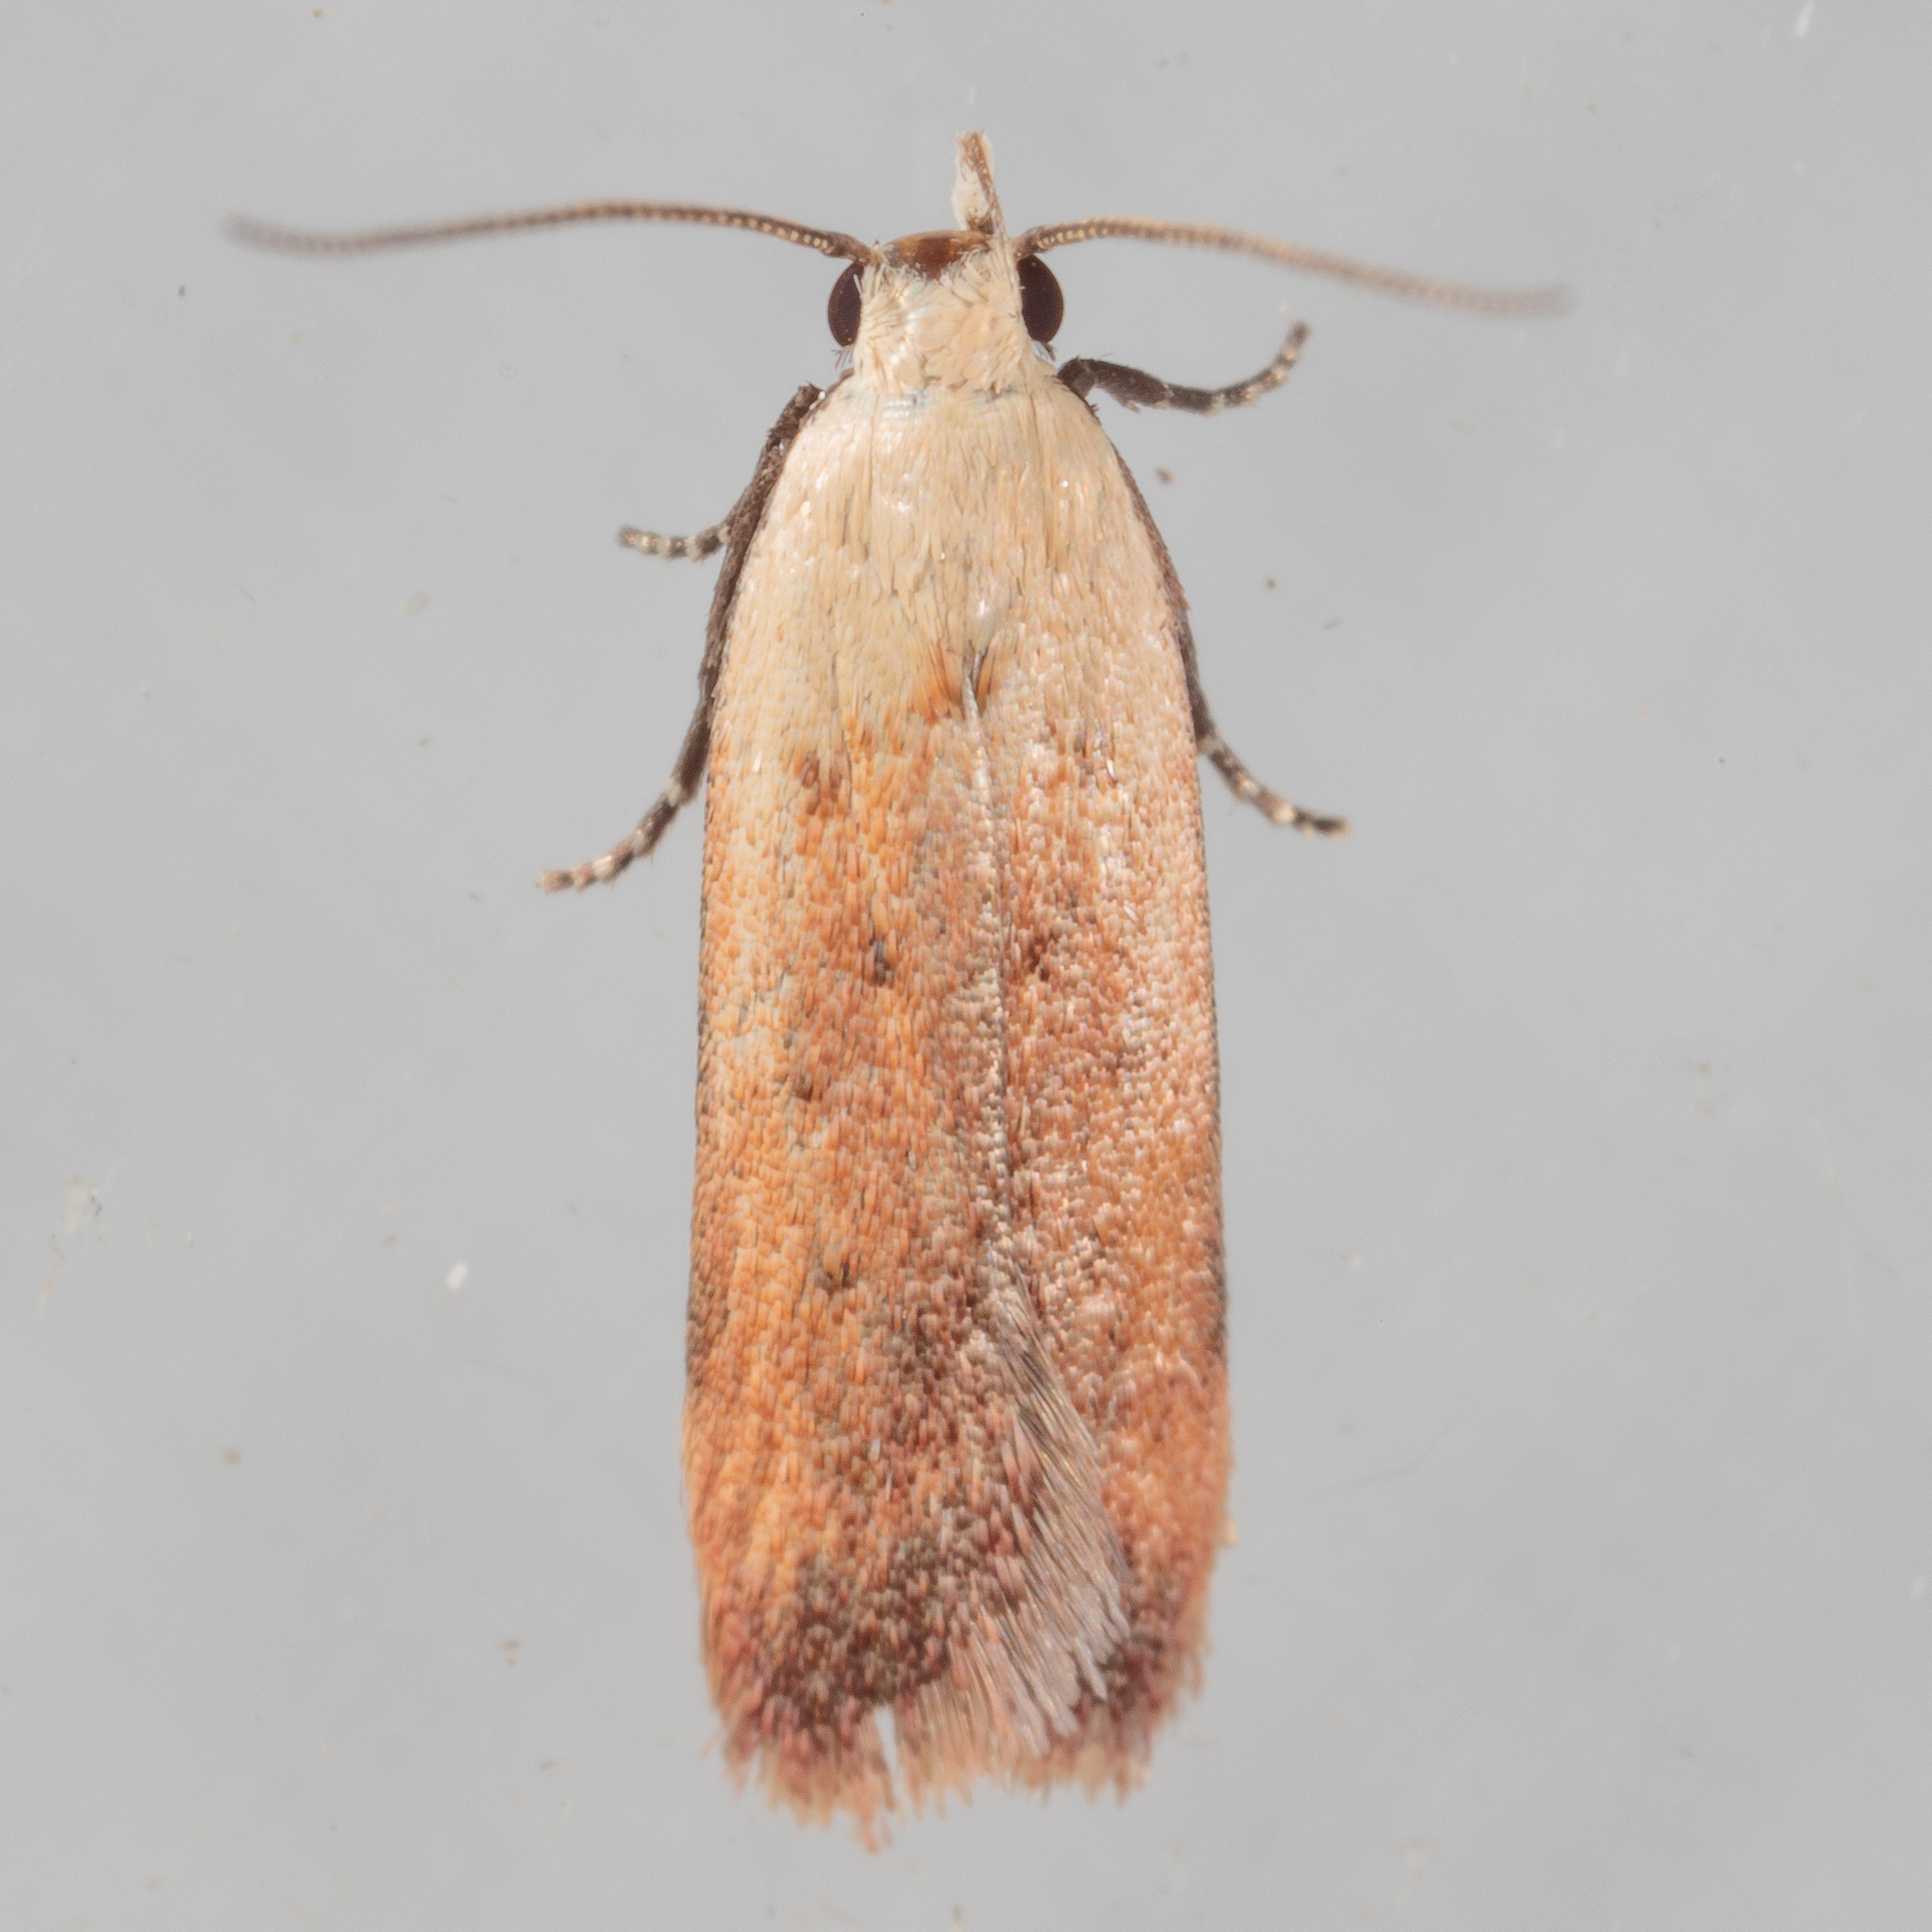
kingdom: Animalia
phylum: Arthropoda
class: Insecta
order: Lepidoptera
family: Gelechiidae
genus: Anacampsis
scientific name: Anacampsis fullonella
